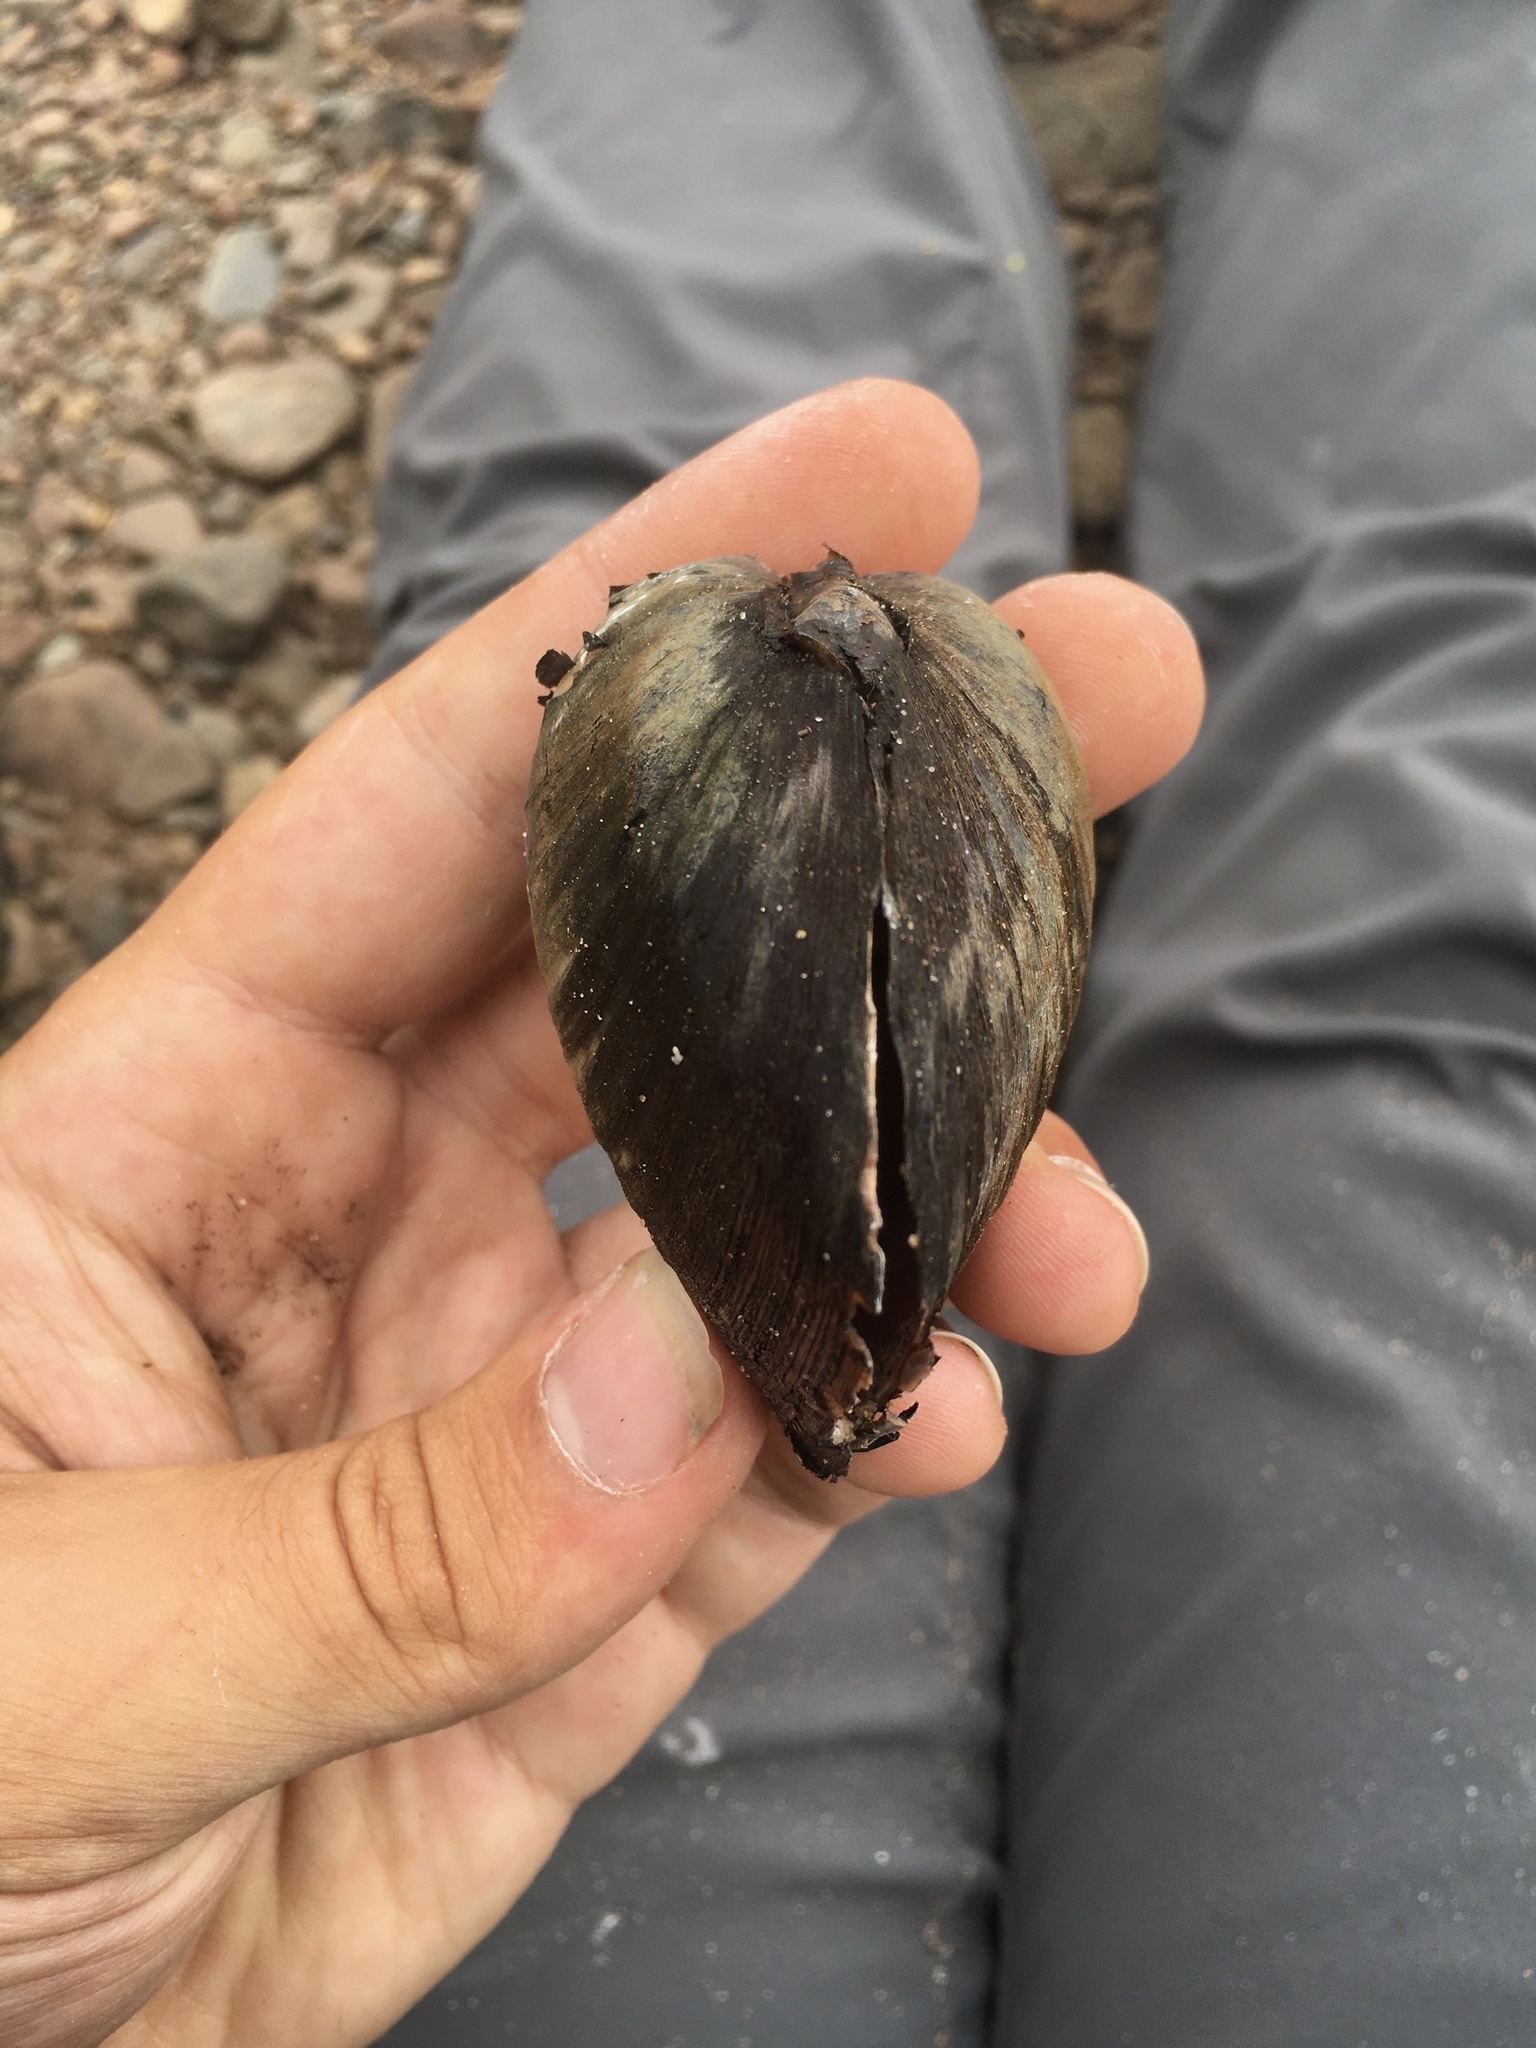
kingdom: Animalia
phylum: Mollusca
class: Bivalvia
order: Unionida
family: Unionidae
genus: Pleurobema
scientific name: Pleurobema sintoxia
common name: Round pigtoe
